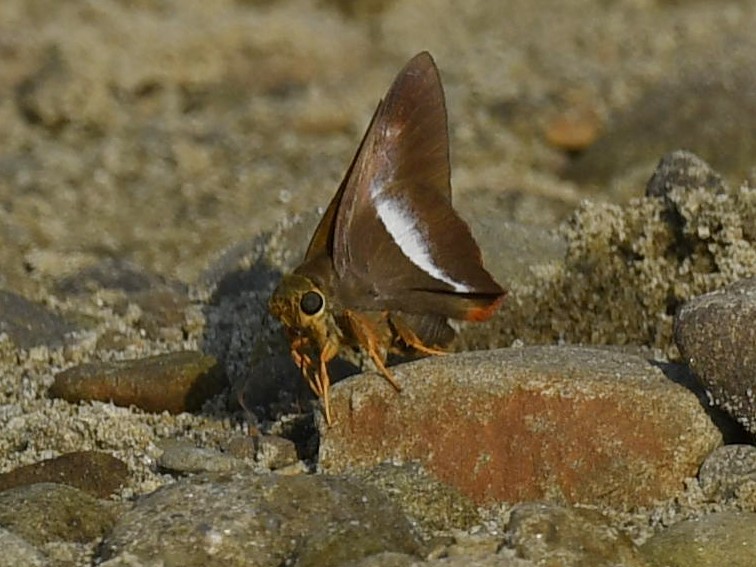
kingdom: Animalia
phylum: Arthropoda
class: Insecta
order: Lepidoptera
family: Hesperiidae
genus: Bibasis
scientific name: Bibasis sena
